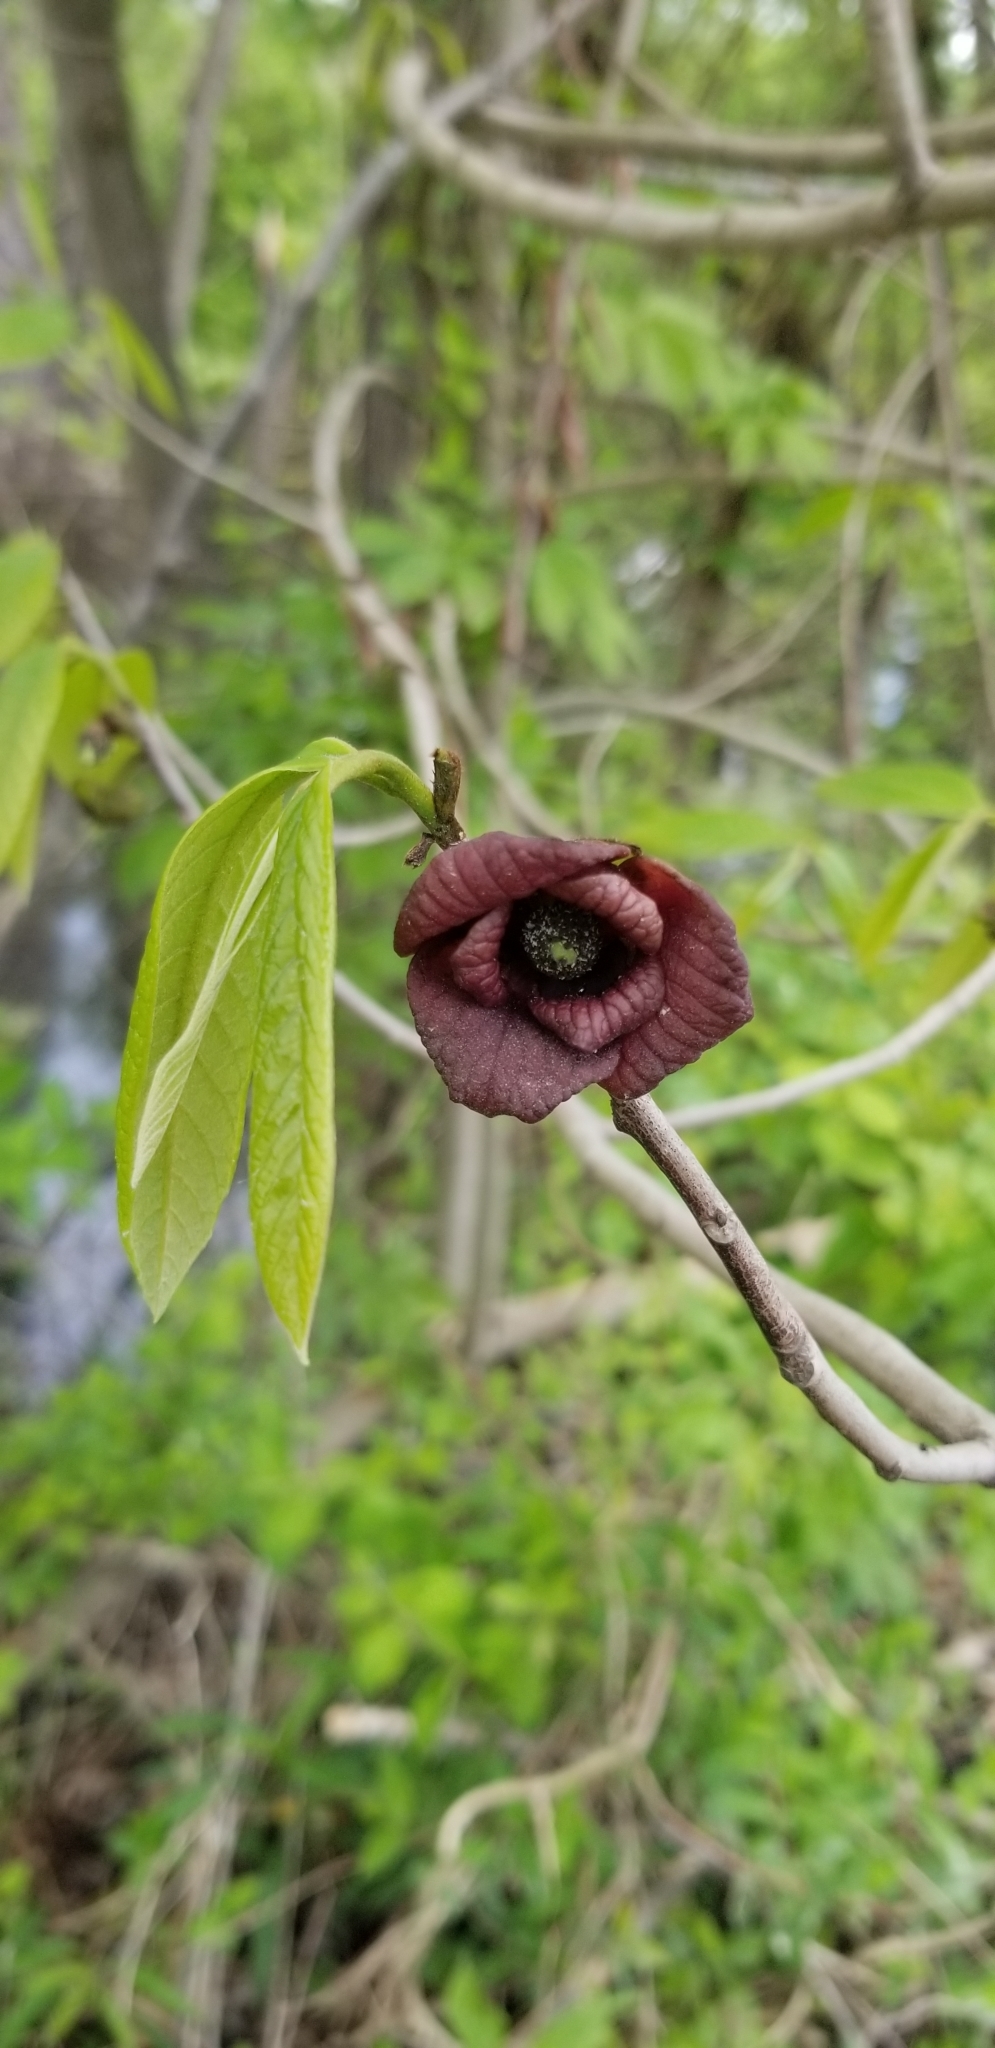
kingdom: Plantae
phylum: Tracheophyta
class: Magnoliopsida
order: Magnoliales
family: Annonaceae
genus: Asimina
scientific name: Asimina triloba
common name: Dog-banana
